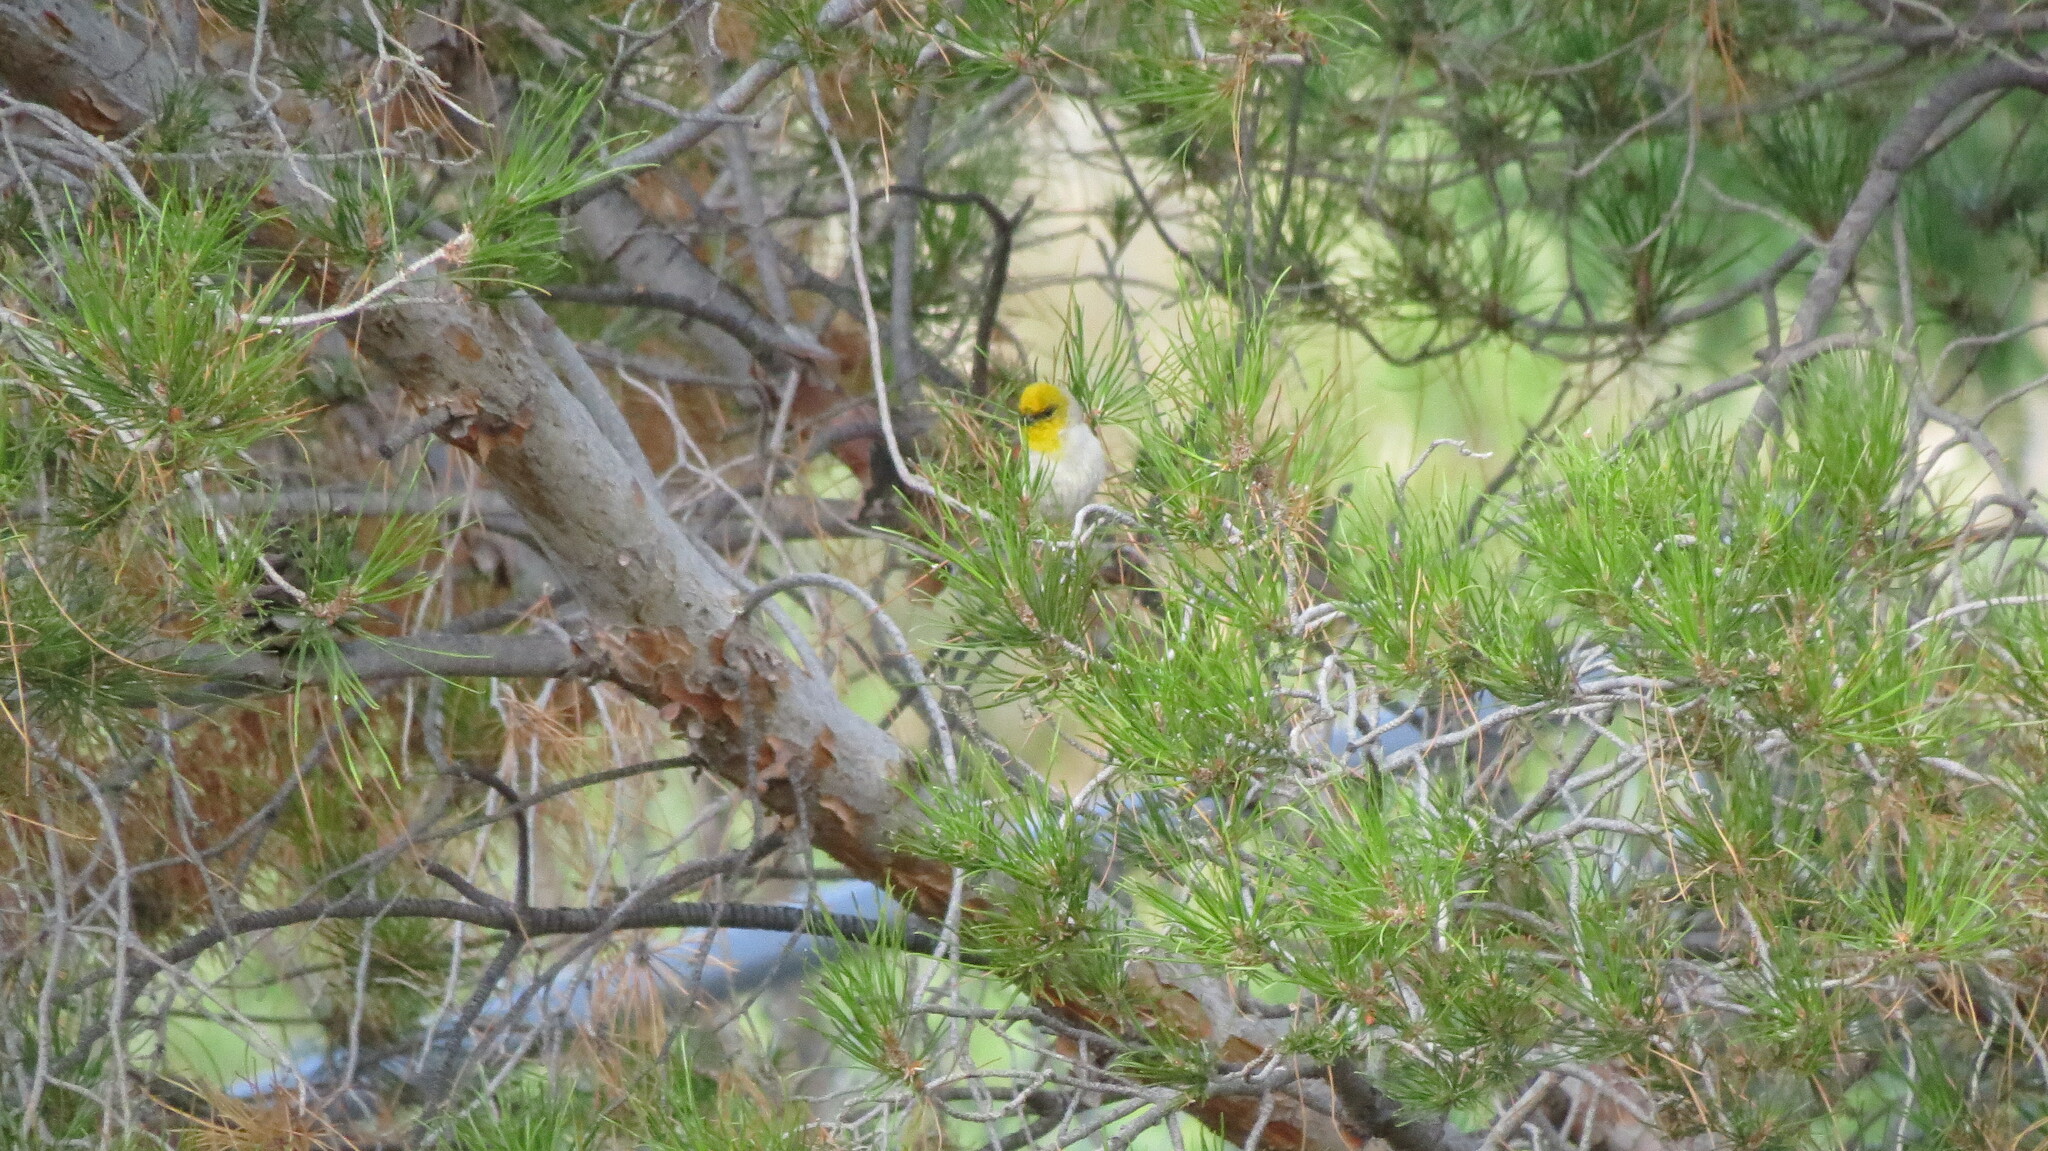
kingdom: Animalia
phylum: Chordata
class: Aves
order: Passeriformes
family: Remizidae
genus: Auriparus
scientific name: Auriparus flaviceps
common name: Verdin
